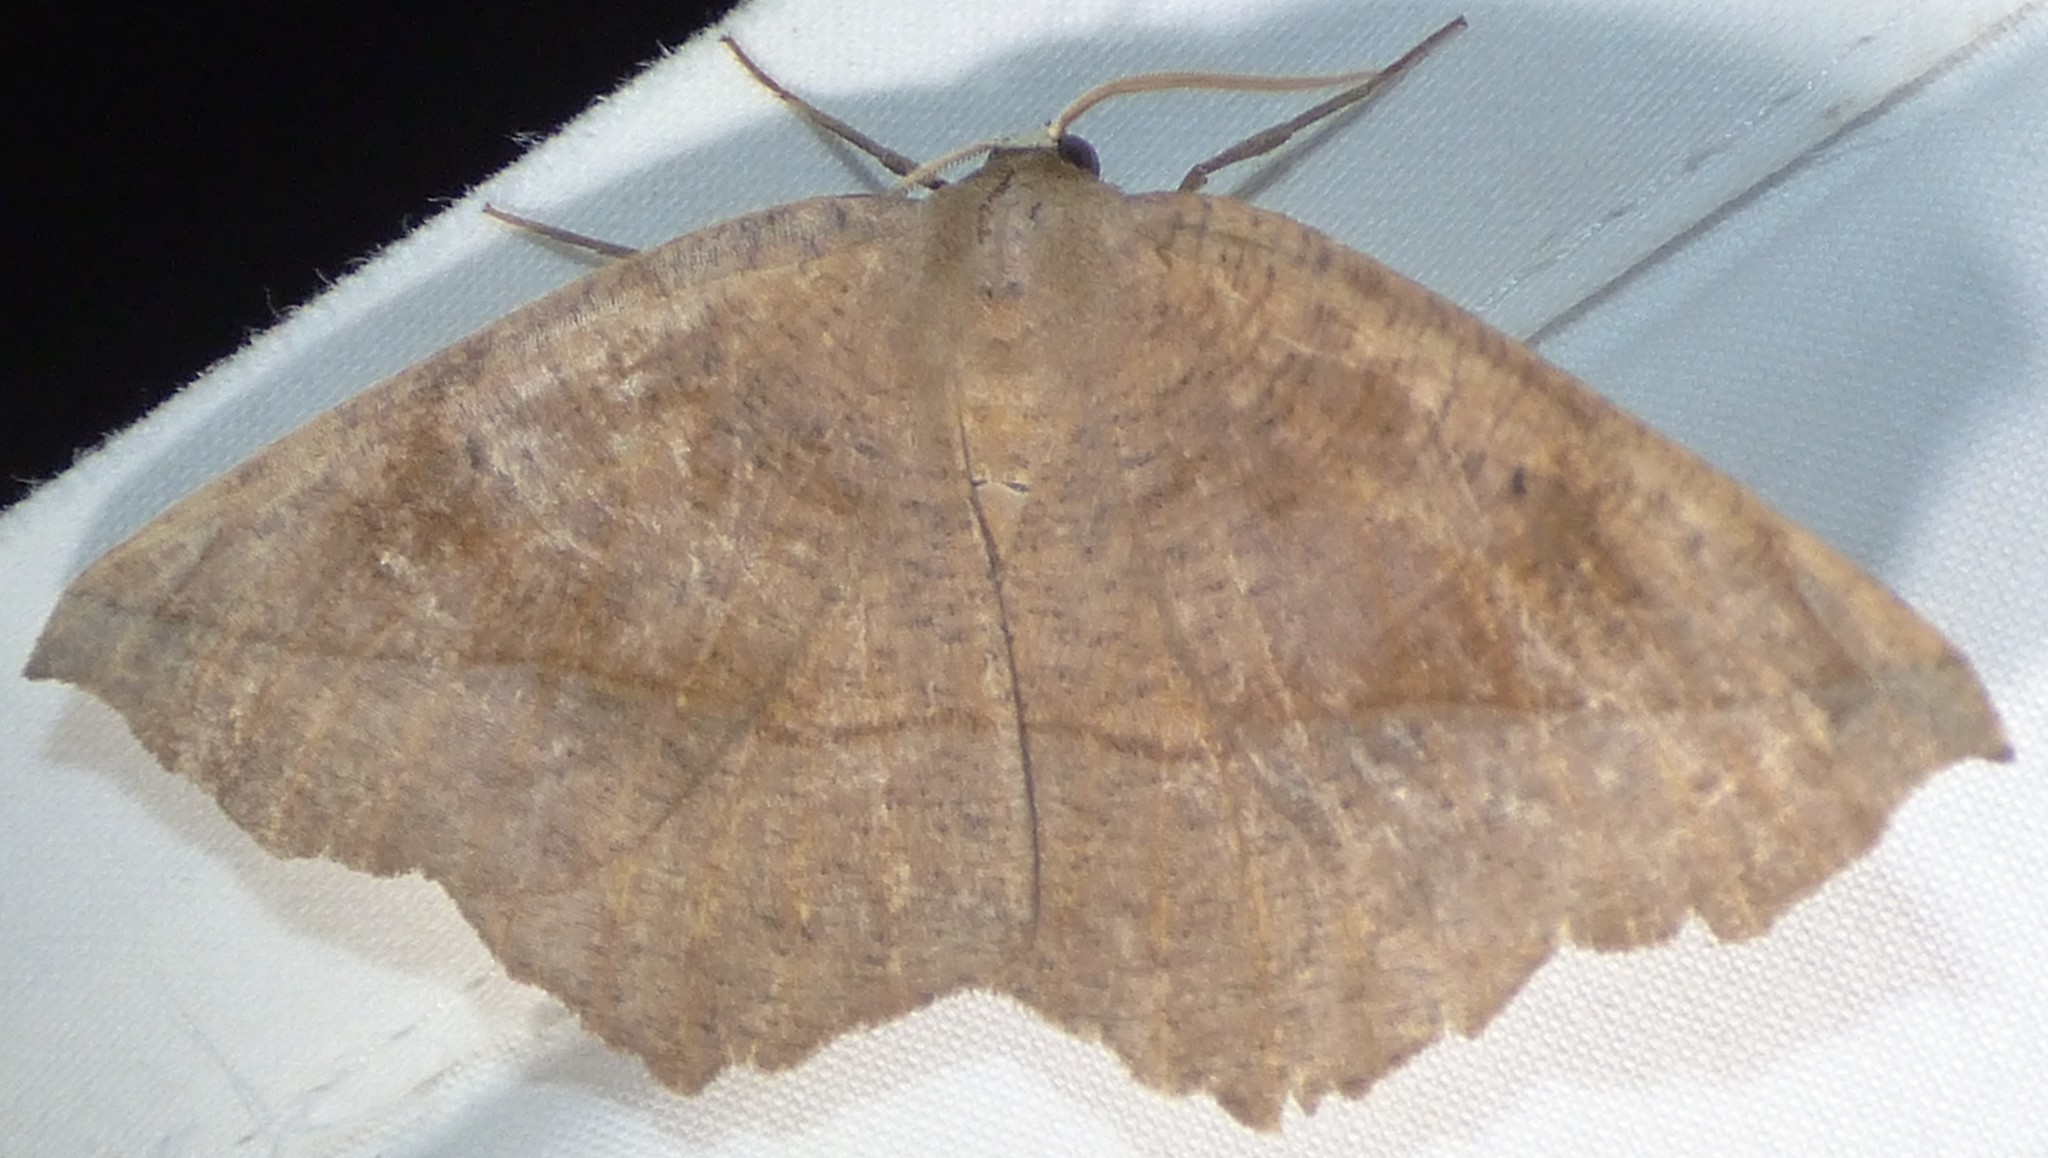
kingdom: Animalia
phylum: Arthropoda
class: Insecta
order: Lepidoptera
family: Geometridae
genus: Eutrapela
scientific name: Eutrapela clemataria
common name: Curved-toothed geometer
